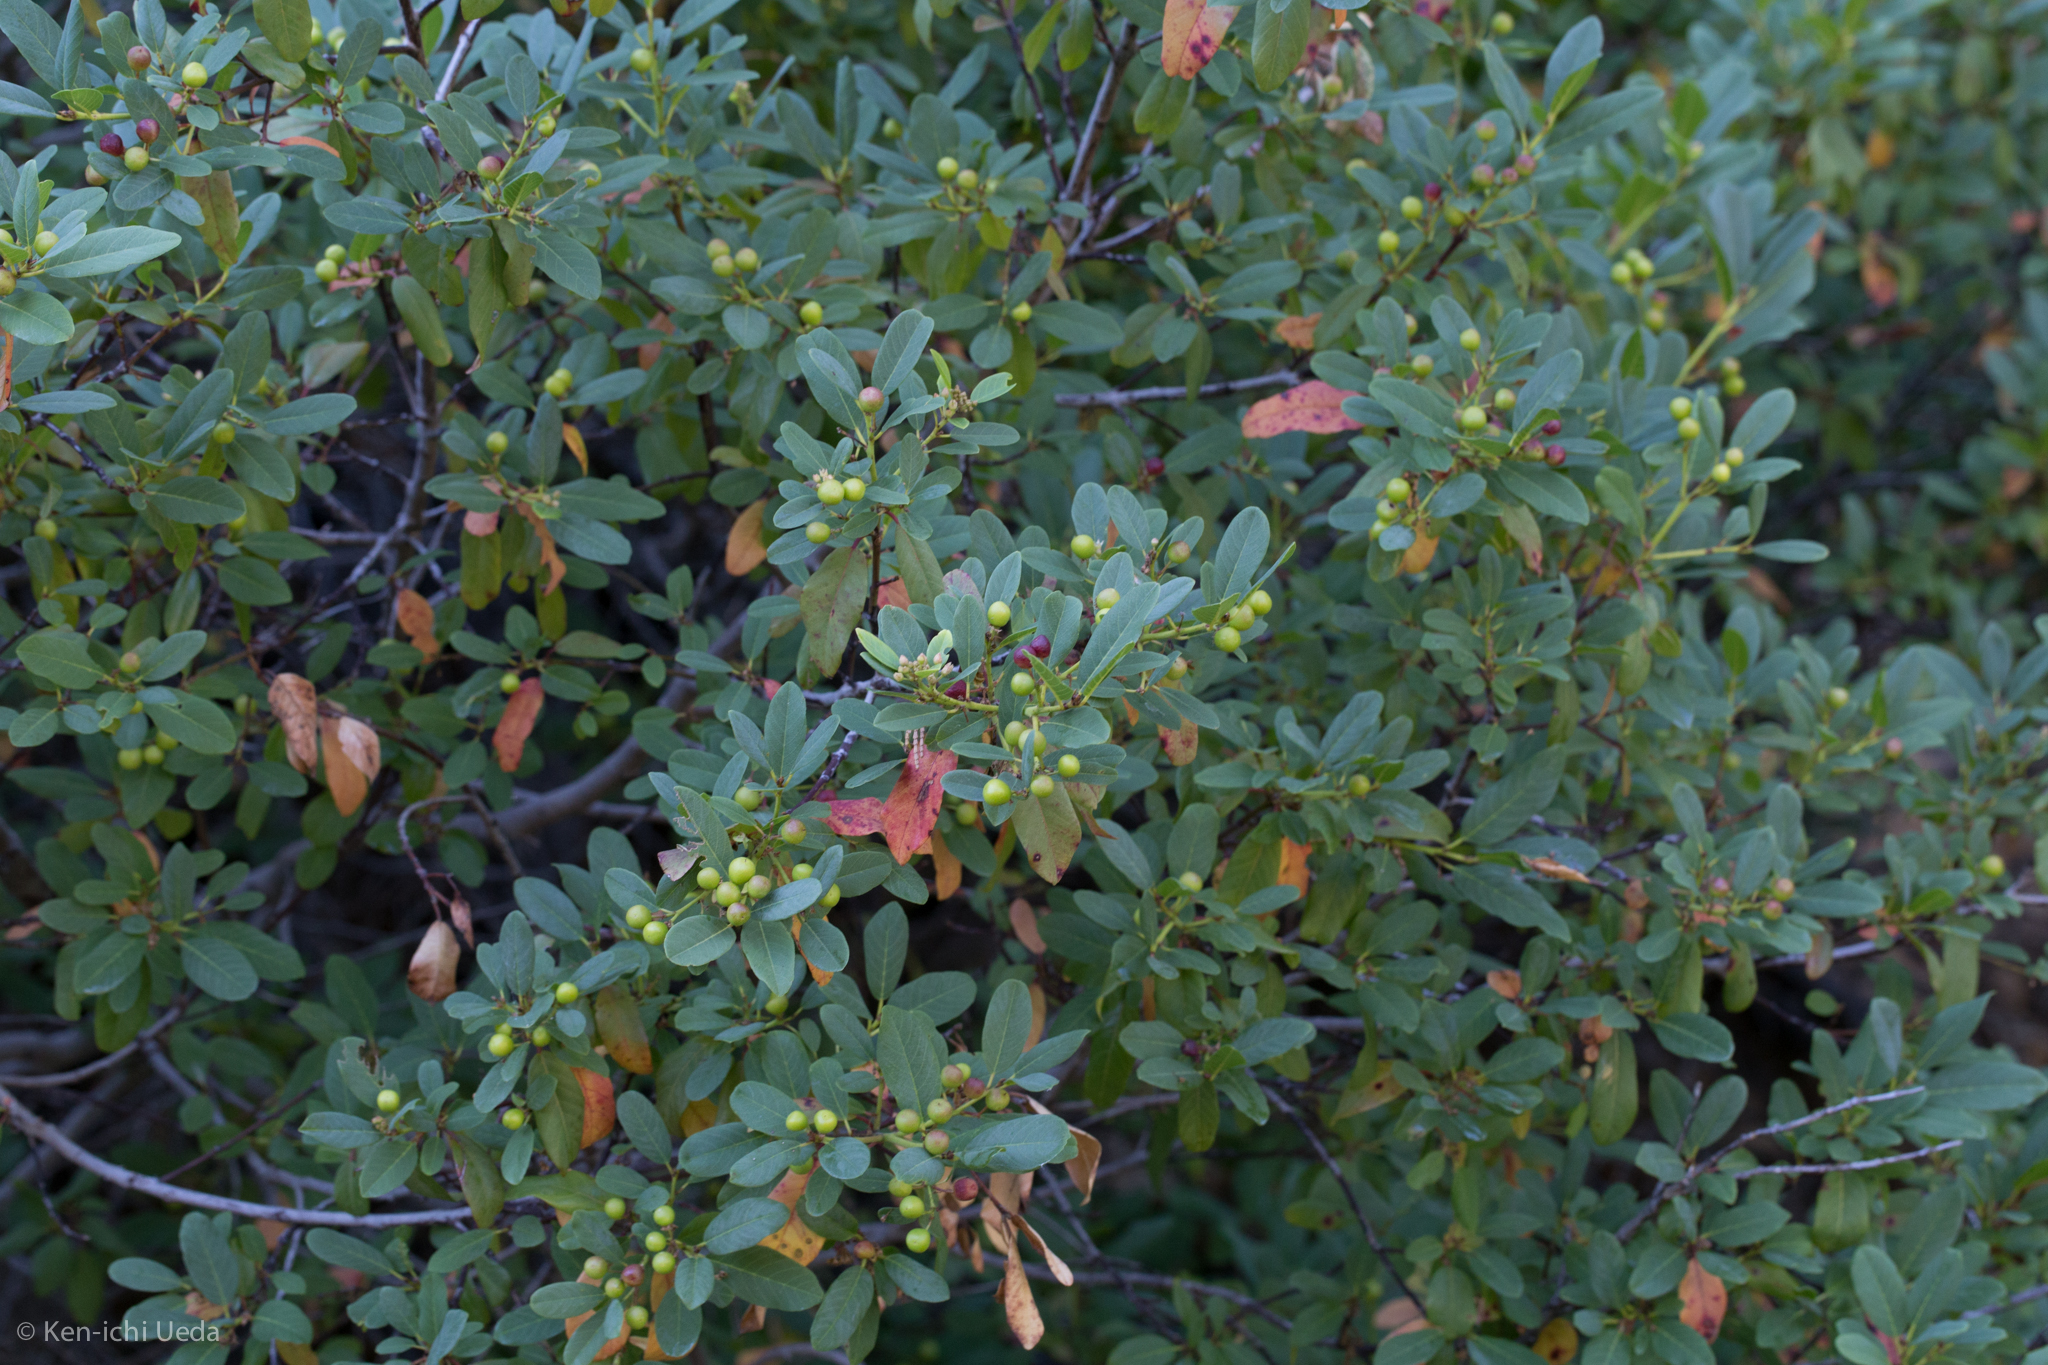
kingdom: Plantae
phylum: Tracheophyta
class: Magnoliopsida
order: Rosales
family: Rhamnaceae
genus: Frangula
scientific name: Frangula californica
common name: California buckthorn
